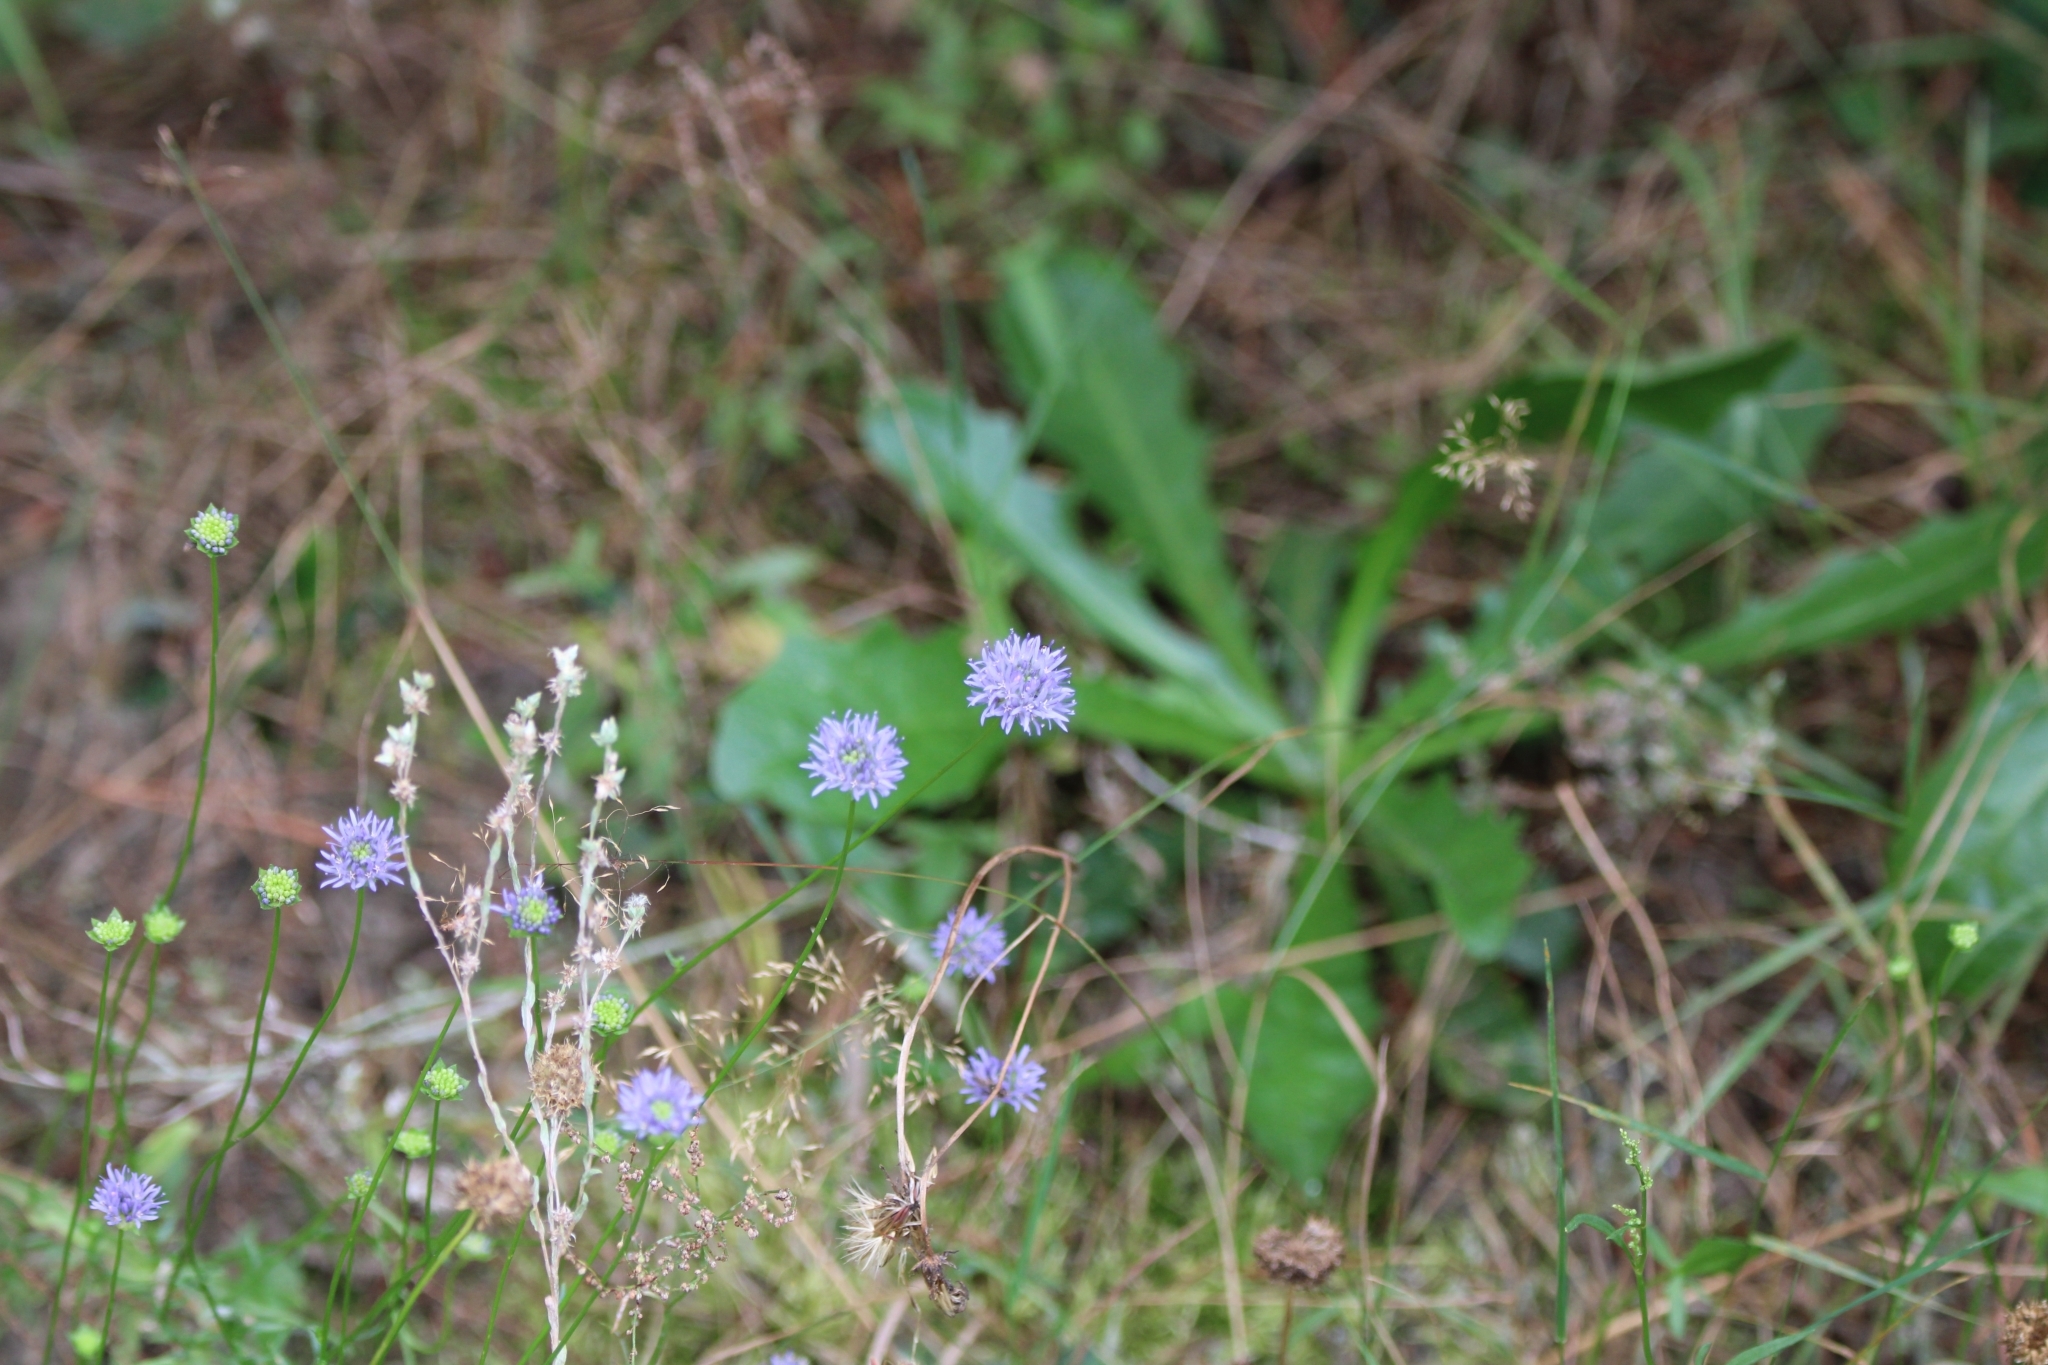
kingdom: Plantae
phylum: Tracheophyta
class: Magnoliopsida
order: Asterales
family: Campanulaceae
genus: Jasione
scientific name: Jasione montana
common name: Sheep's-bit
